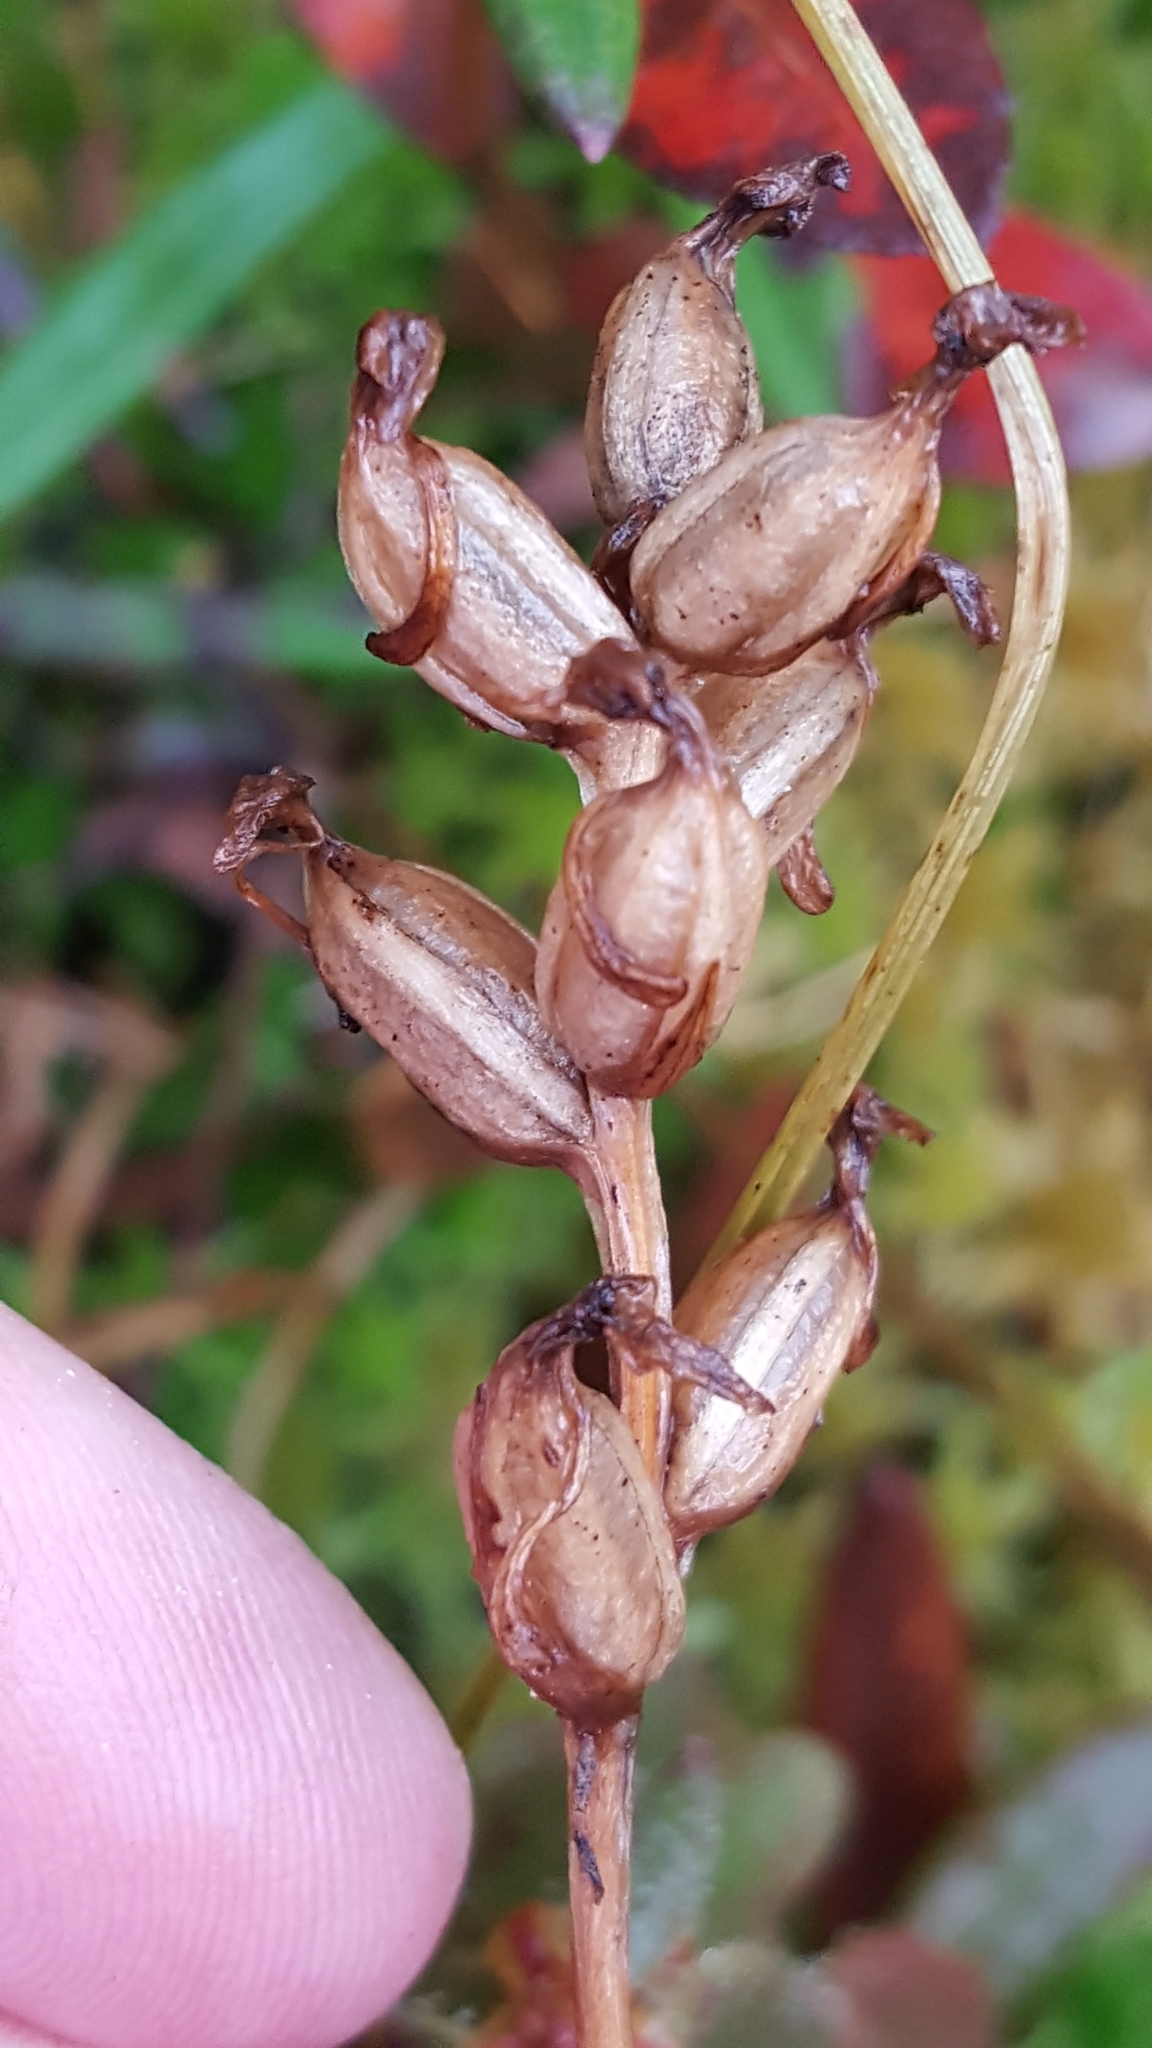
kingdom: Plantae
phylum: Tracheophyta
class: Liliopsida
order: Asparagales
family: Orchidaceae
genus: Platanthera
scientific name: Platanthera clavellata
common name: Club-spur orchid
